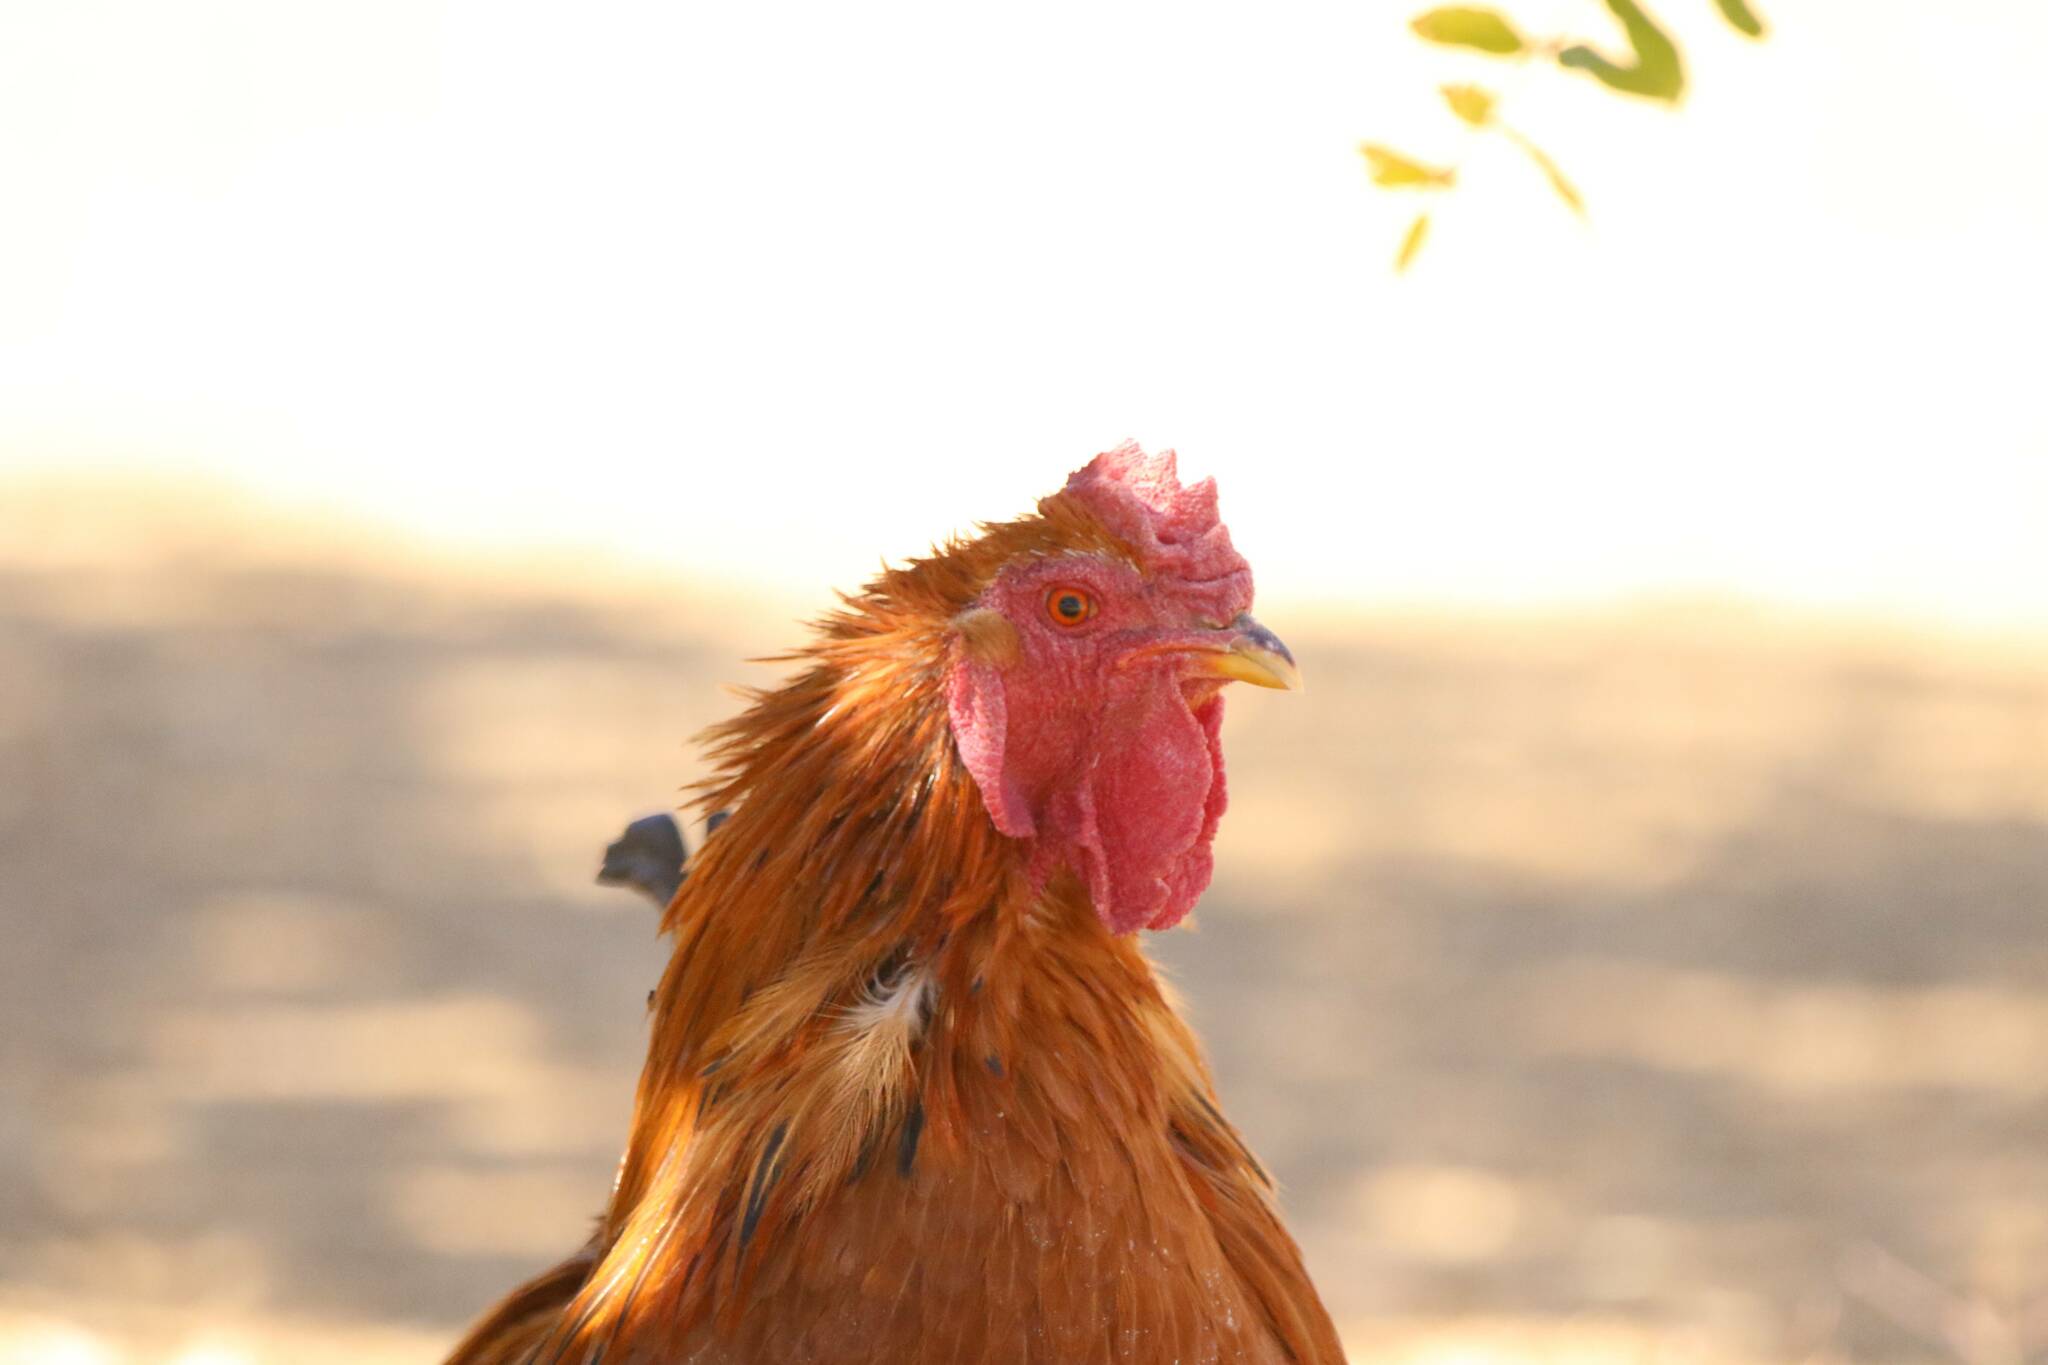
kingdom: Animalia
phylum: Chordata
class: Aves
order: Galliformes
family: Phasianidae
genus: Gallus
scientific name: Gallus gallus
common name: Red junglefowl
